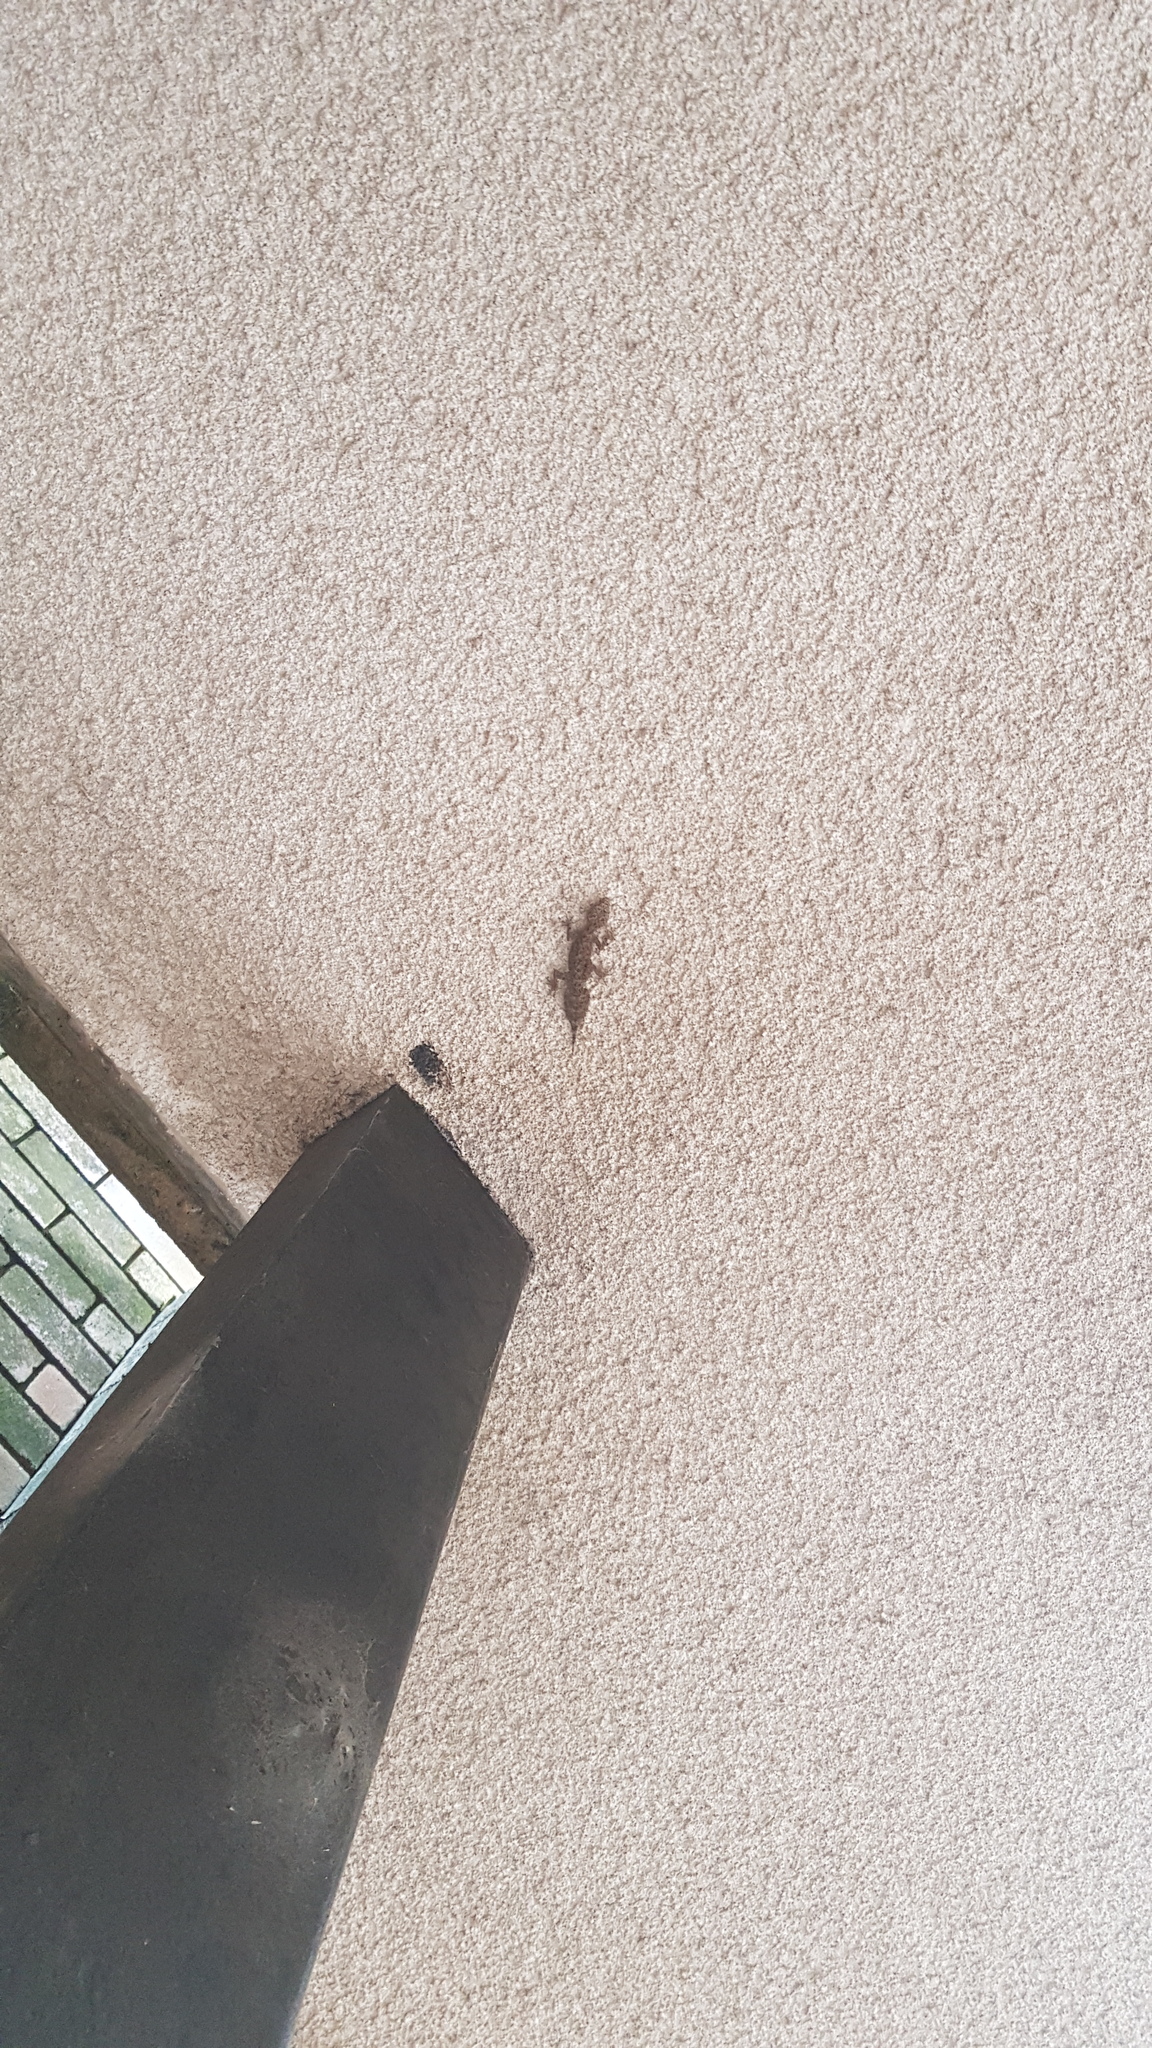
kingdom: Animalia
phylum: Chordata
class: Squamata
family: Carphodactylidae
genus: Phyllurus
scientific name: Phyllurus platurus
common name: Broad-tailed gecko
